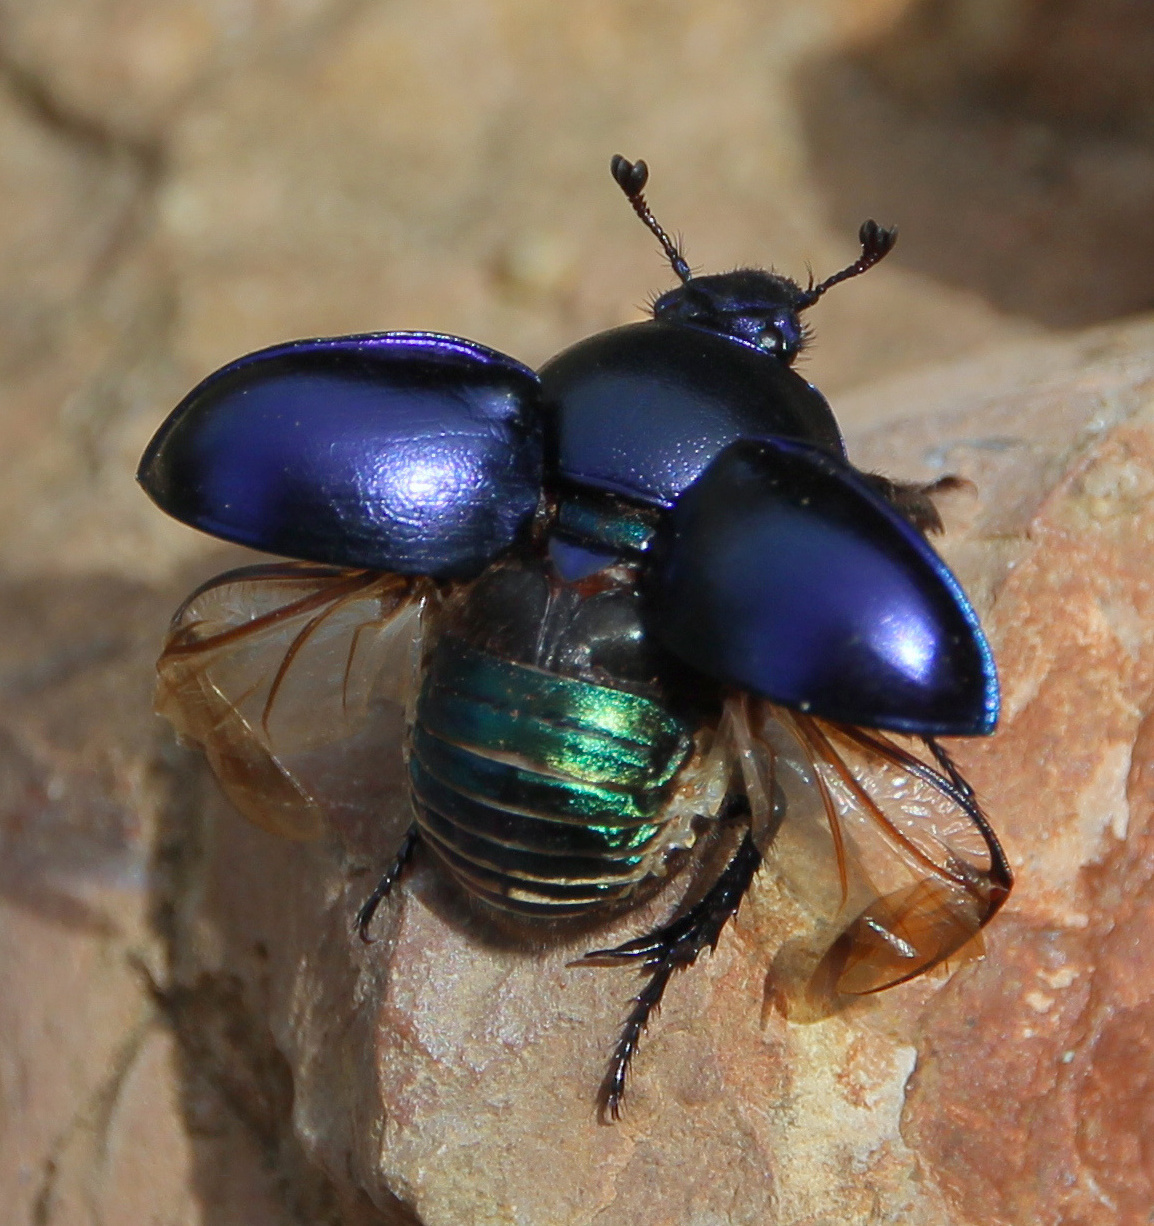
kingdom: Animalia
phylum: Arthropoda
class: Insecta
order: Coleoptera
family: Geotrupidae
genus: Trypocopris
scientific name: Trypocopris vernalis
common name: Spring dumbledor
